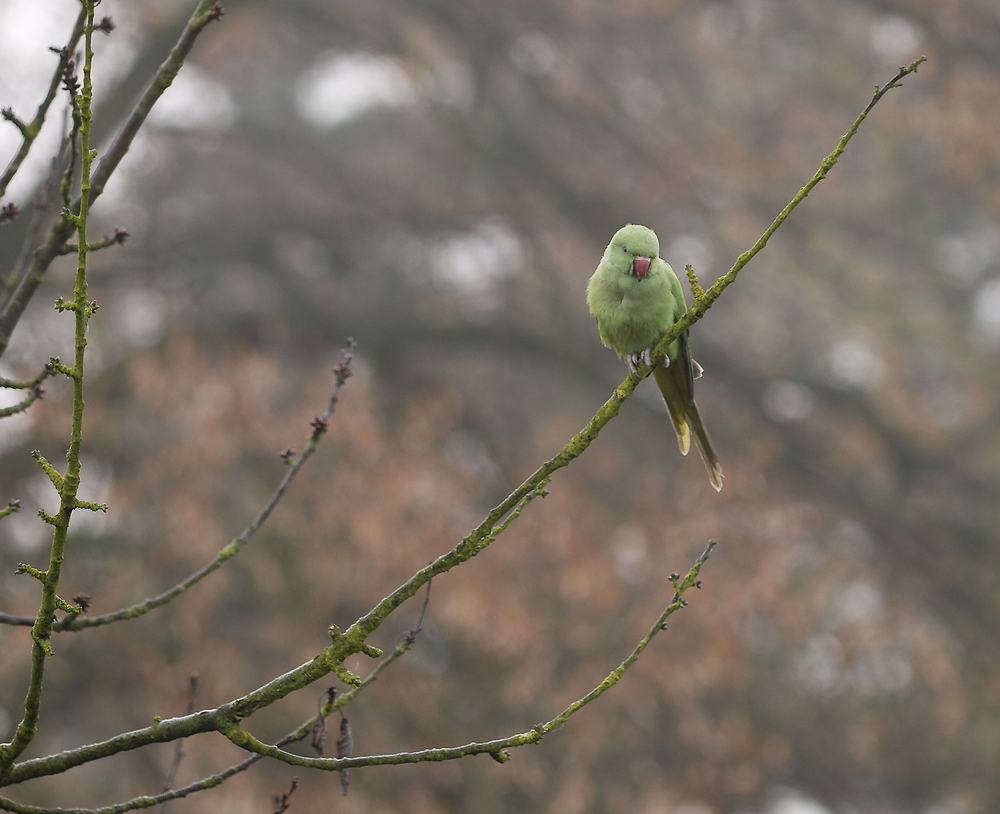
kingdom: Animalia
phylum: Chordata
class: Aves
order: Psittaciformes
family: Psittacidae
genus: Psittacula
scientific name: Psittacula krameri
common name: Rose-ringed parakeet
